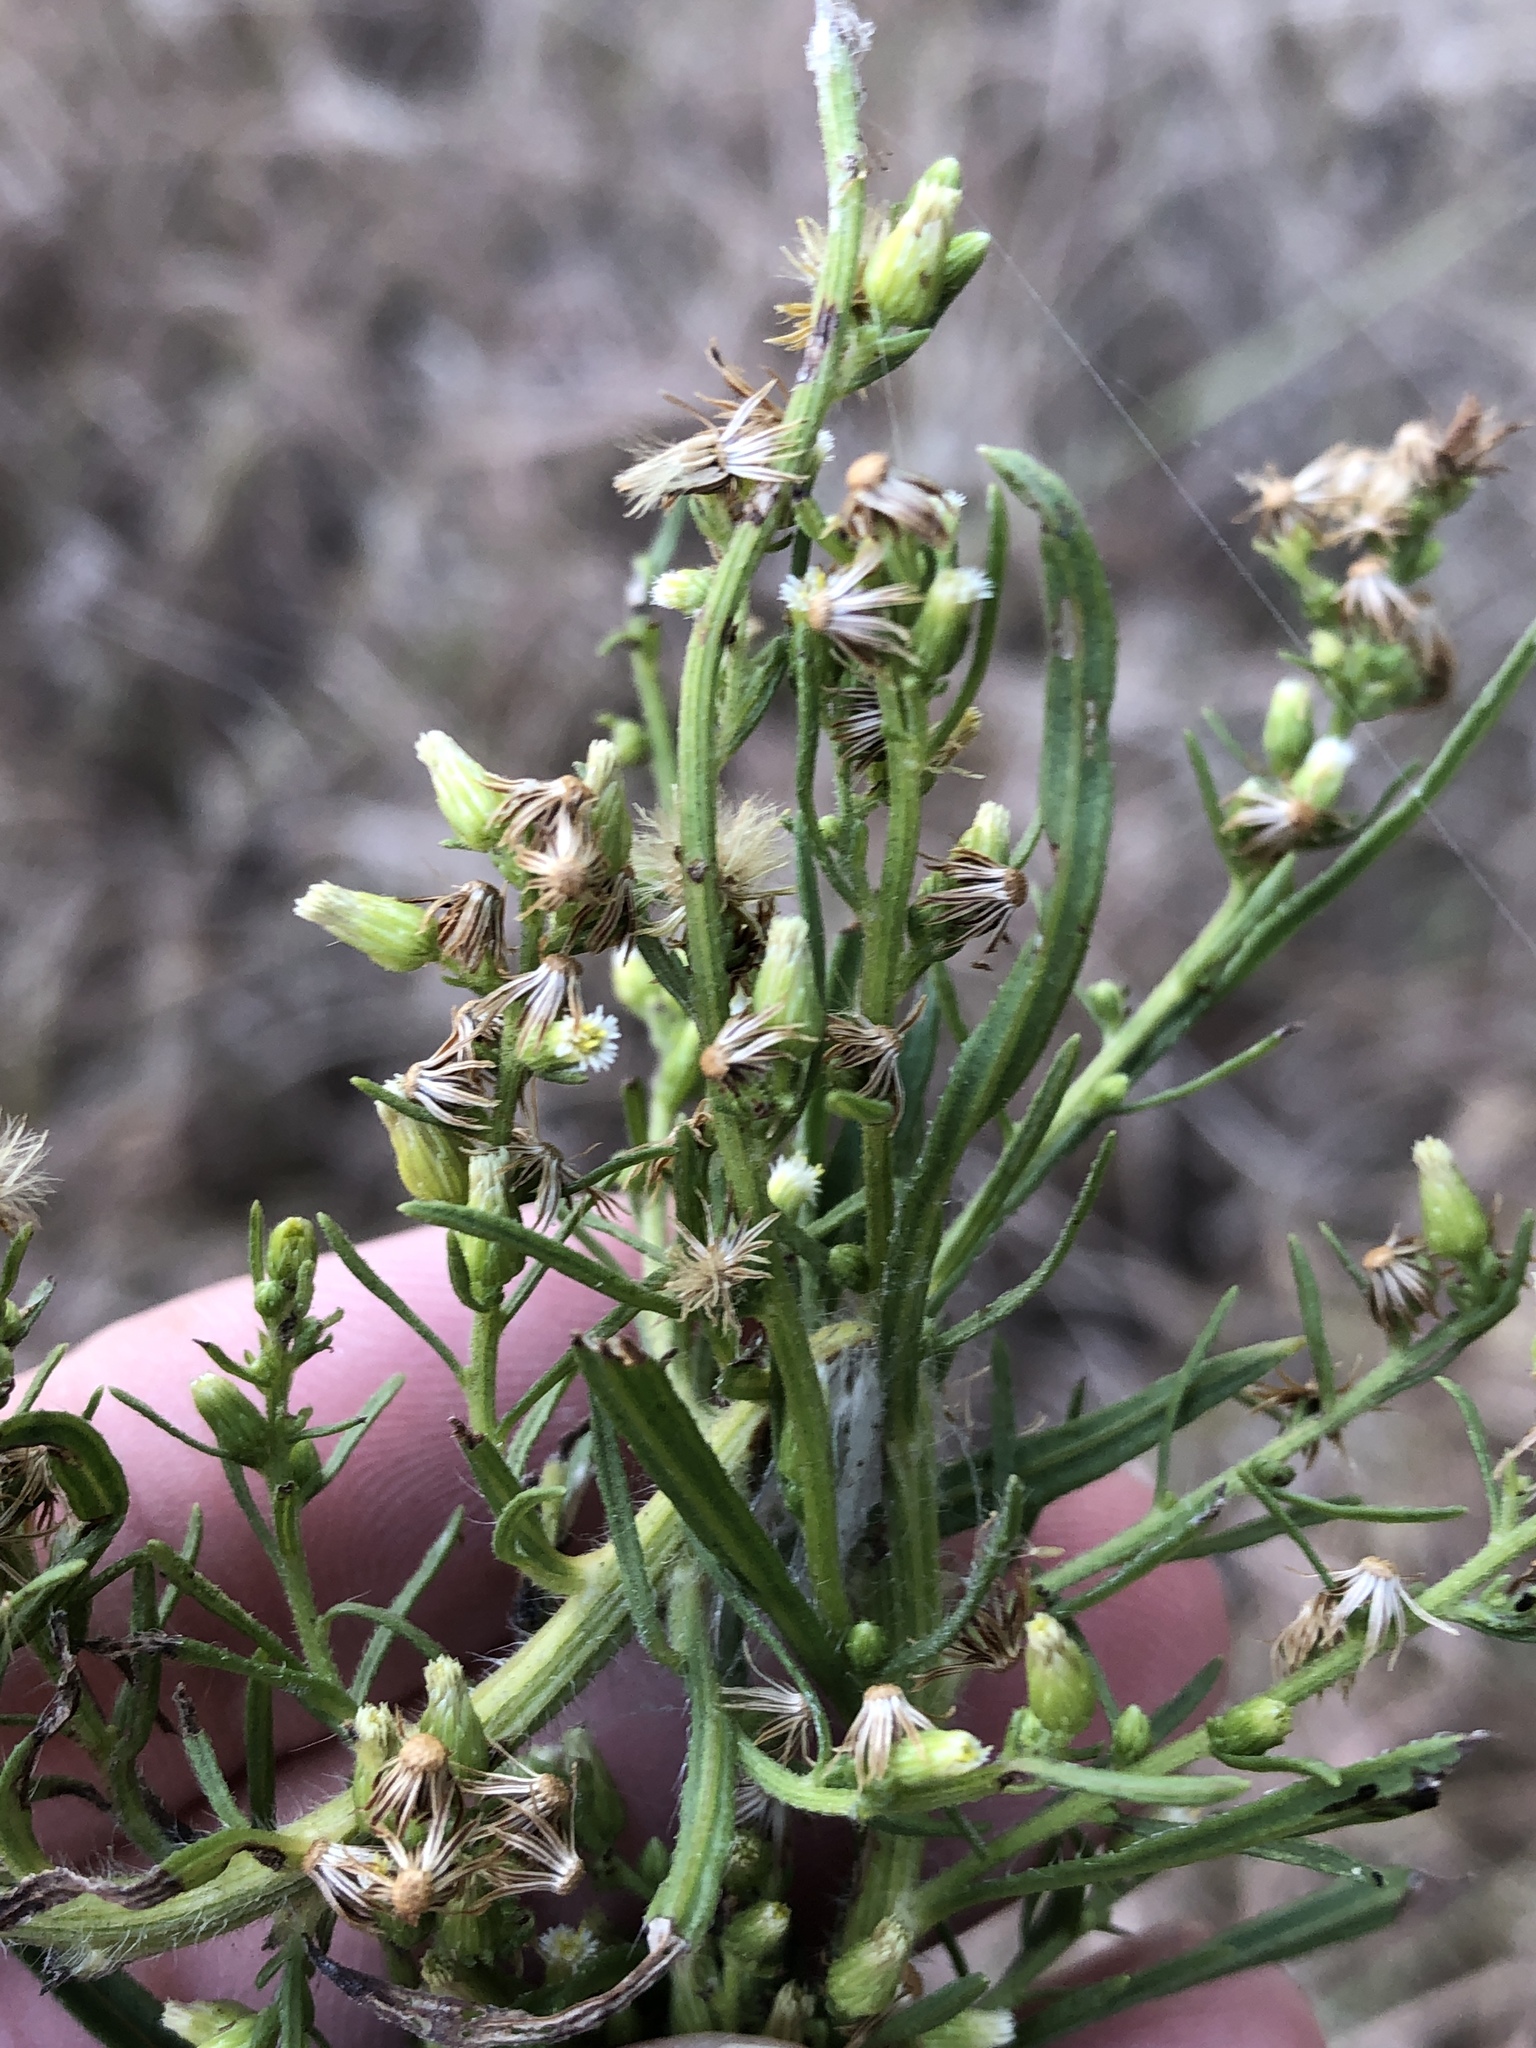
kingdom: Plantae
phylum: Tracheophyta
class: Magnoliopsida
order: Asterales
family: Asteraceae
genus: Erigeron
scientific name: Erigeron canadensis
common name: Canadian fleabane
